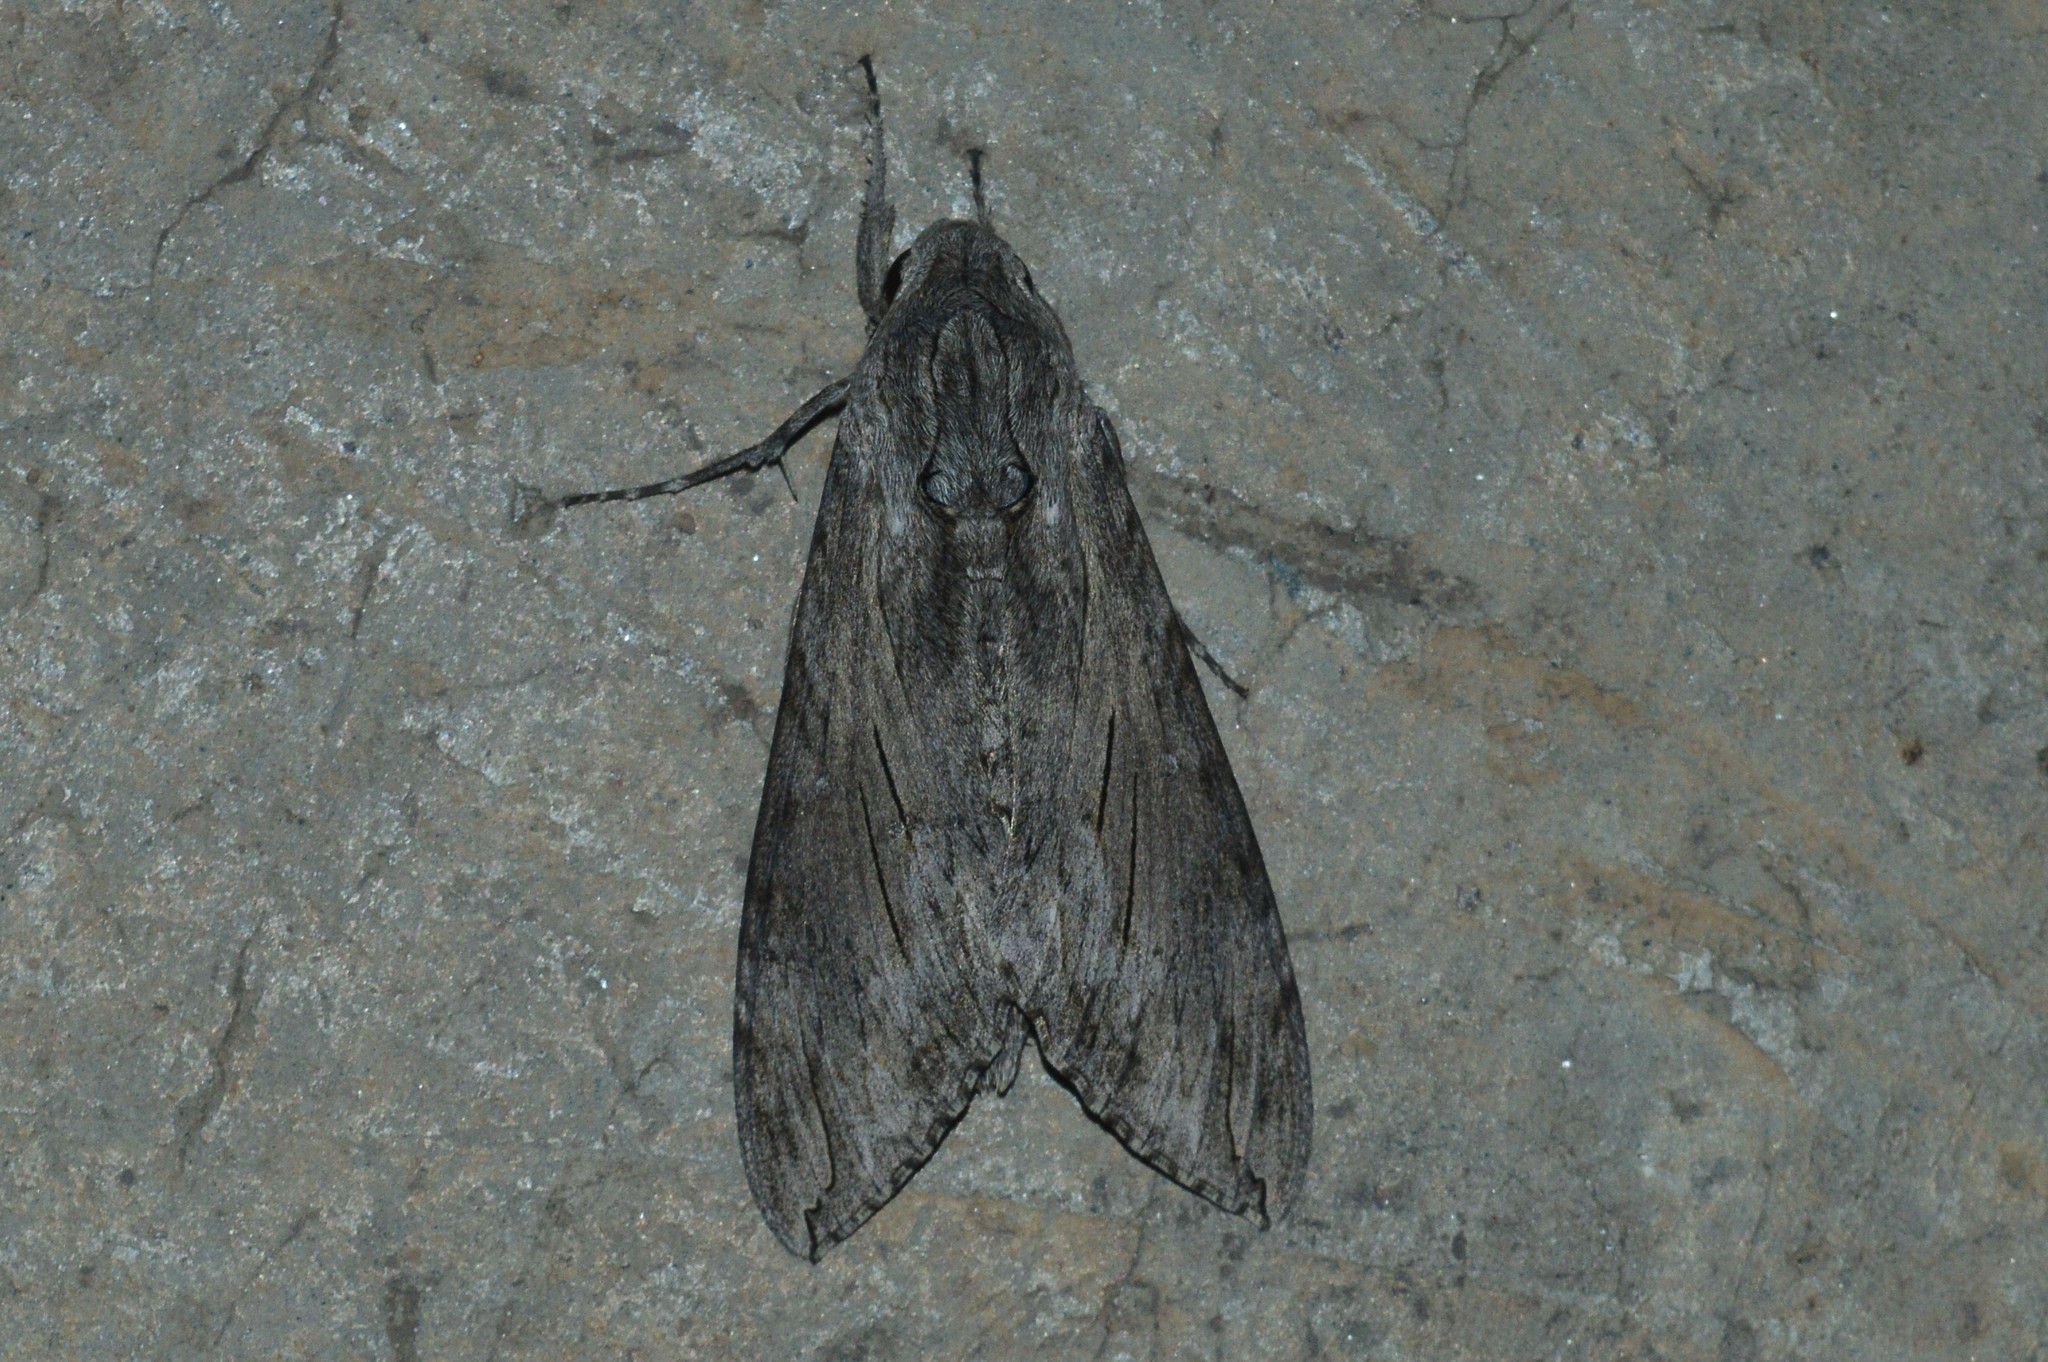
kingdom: Animalia
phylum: Arthropoda
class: Insecta
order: Lepidoptera
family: Sphingidae
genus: Agrius
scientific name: Agrius convolvuli
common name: Convolvulus hawkmoth
